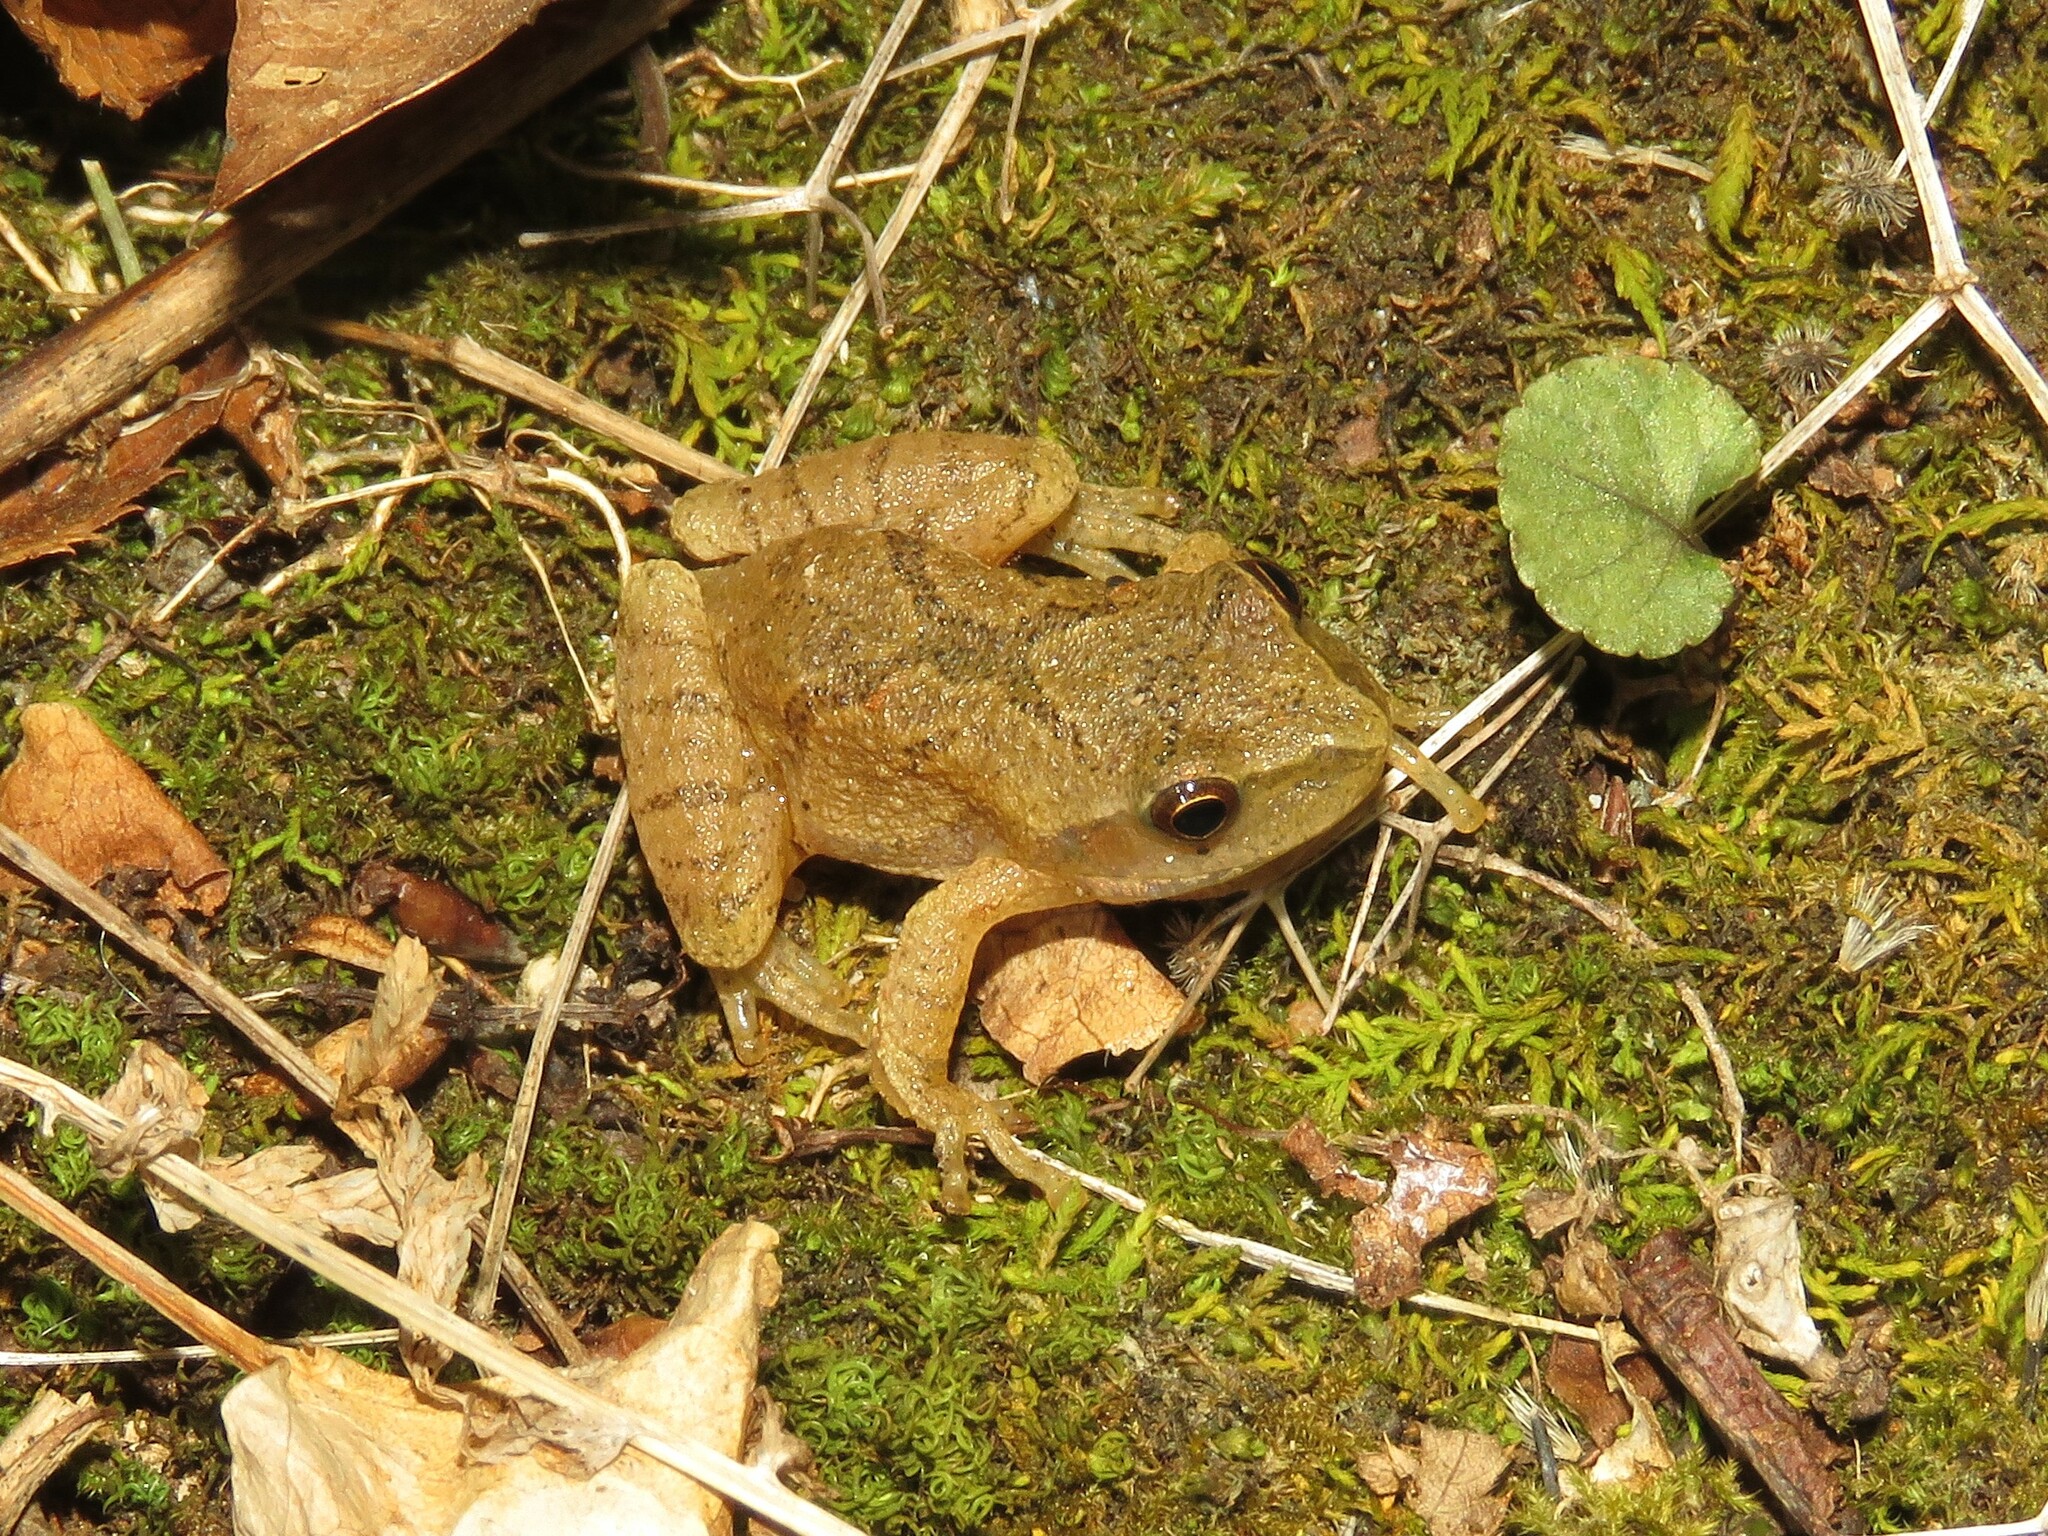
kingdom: Animalia
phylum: Chordata
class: Amphibia
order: Anura
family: Hylidae
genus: Pseudacris
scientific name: Pseudacris crucifer
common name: Spring peeper
